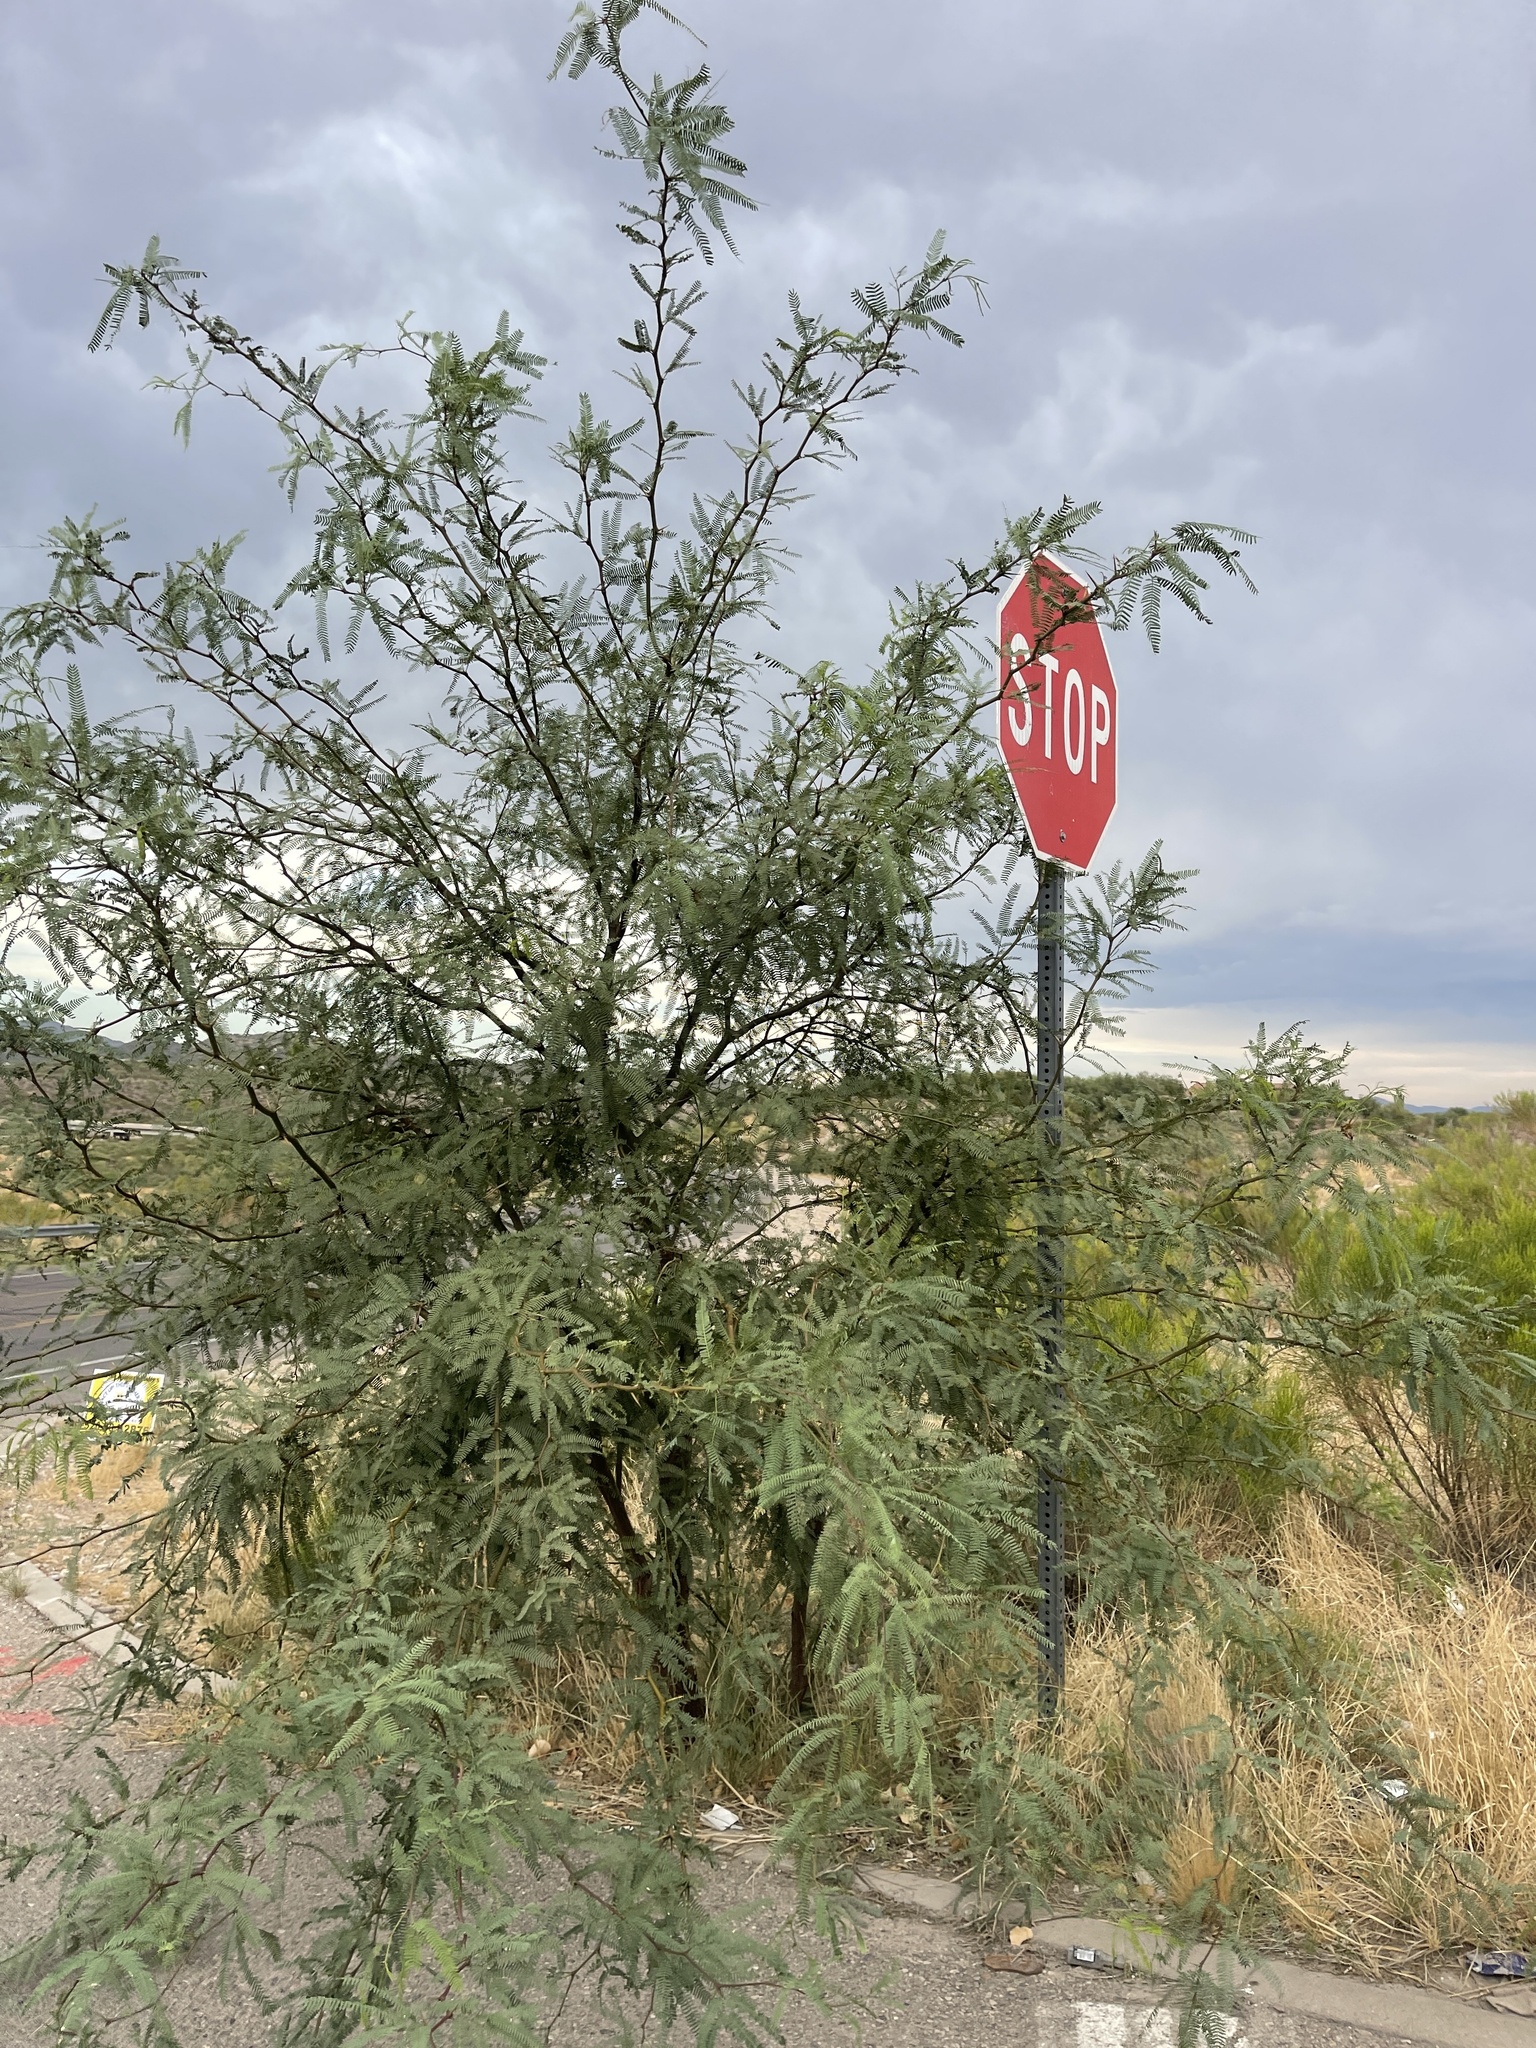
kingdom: Plantae
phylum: Tracheophyta
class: Magnoliopsida
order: Fabales
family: Fabaceae
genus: Prosopis
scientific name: Prosopis velutina
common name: Velvet mesquite
